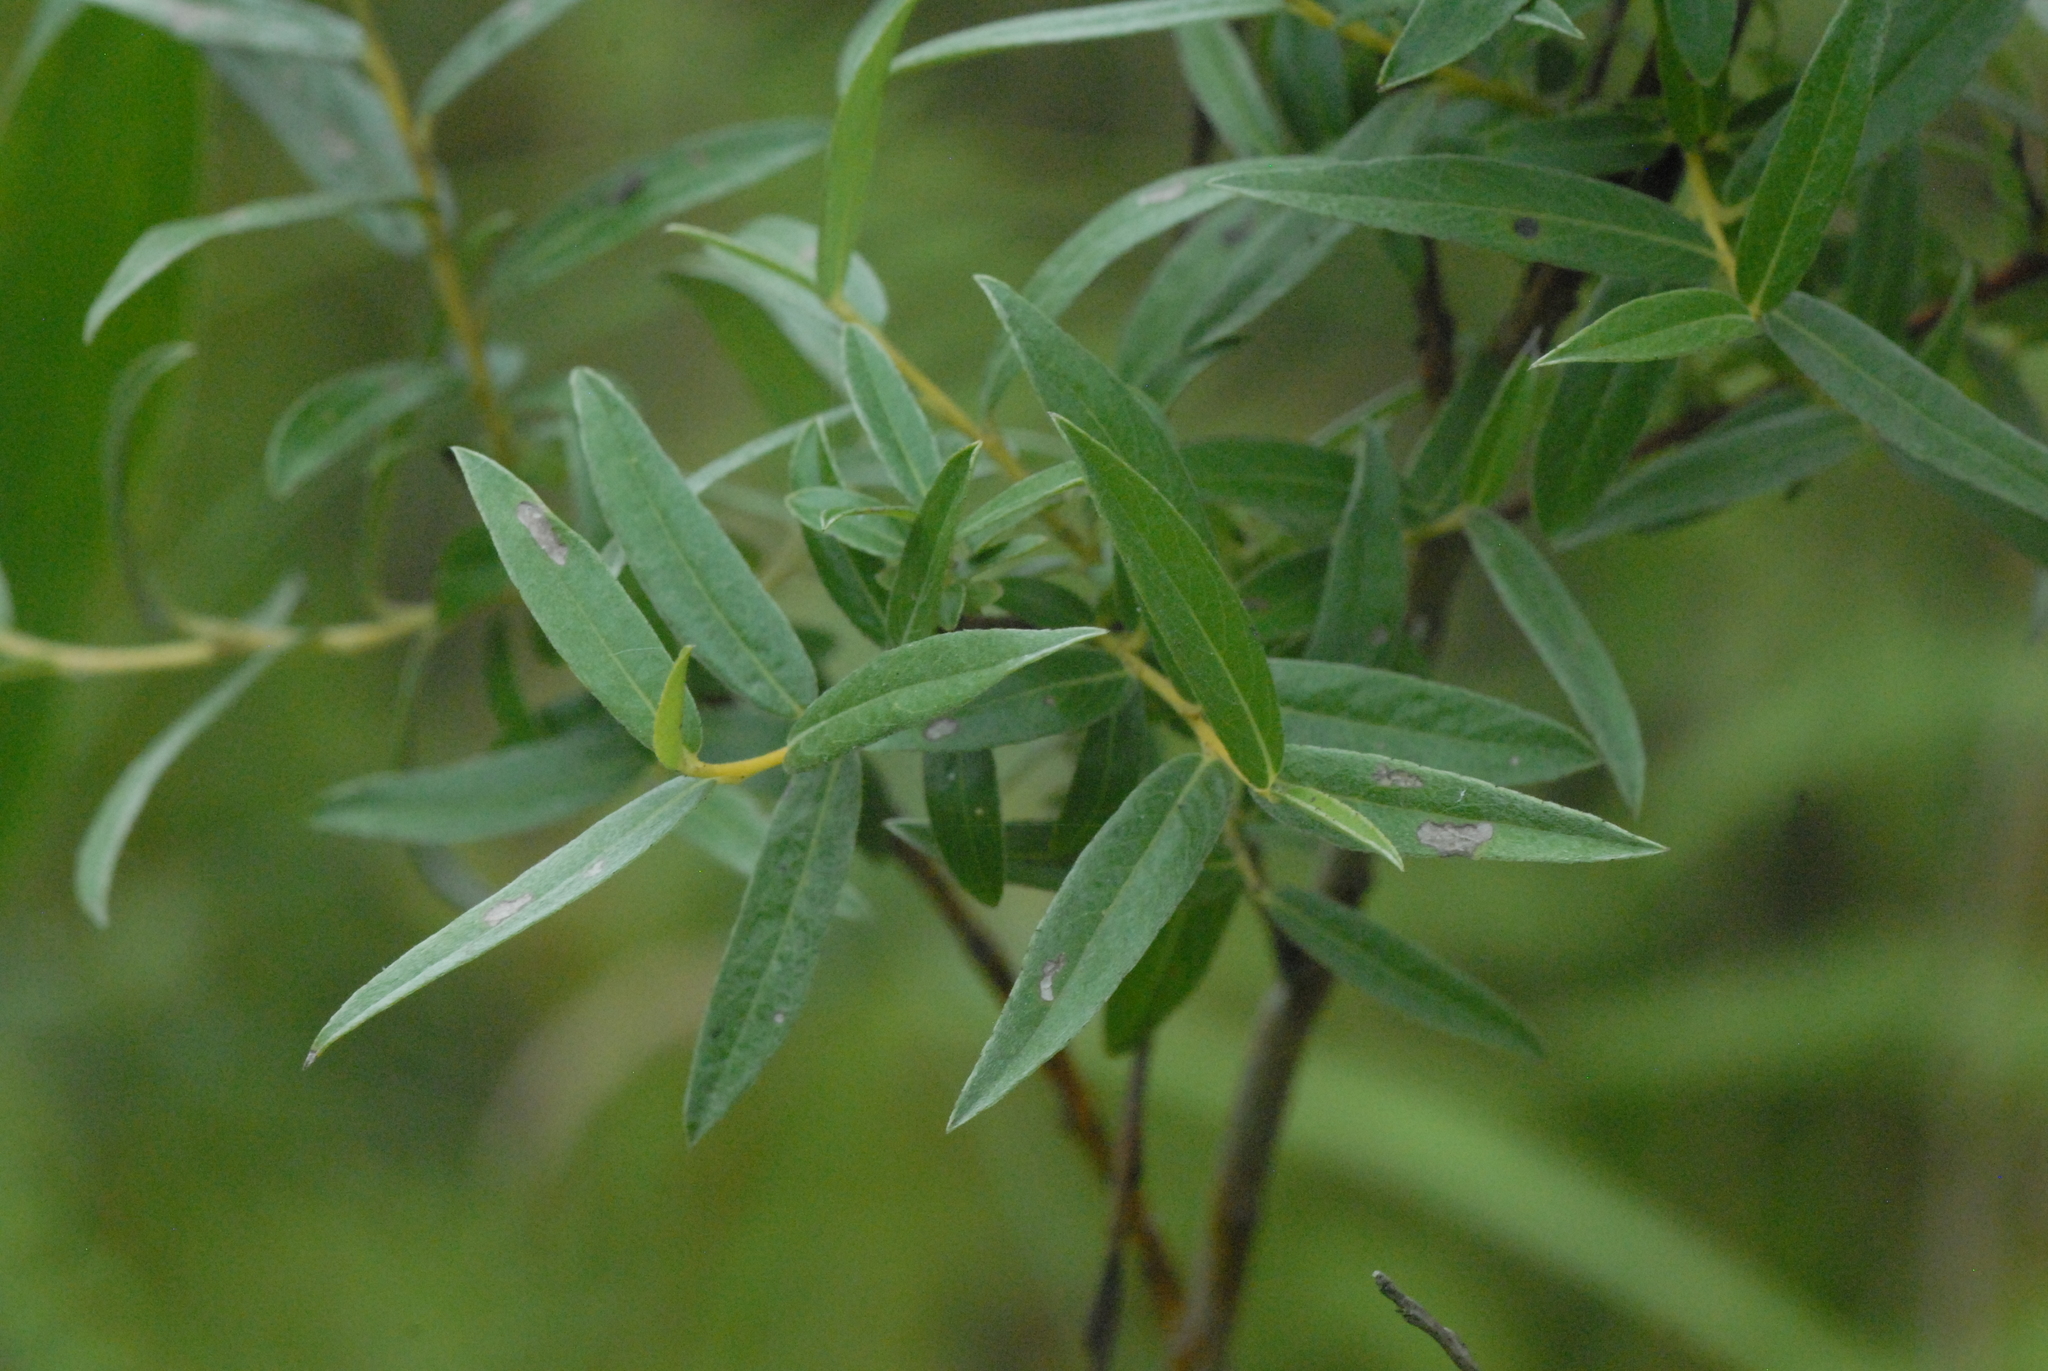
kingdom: Plantae
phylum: Tracheophyta
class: Magnoliopsida
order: Malpighiales
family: Salicaceae
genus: Salix
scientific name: Salix rosmarinifolia
